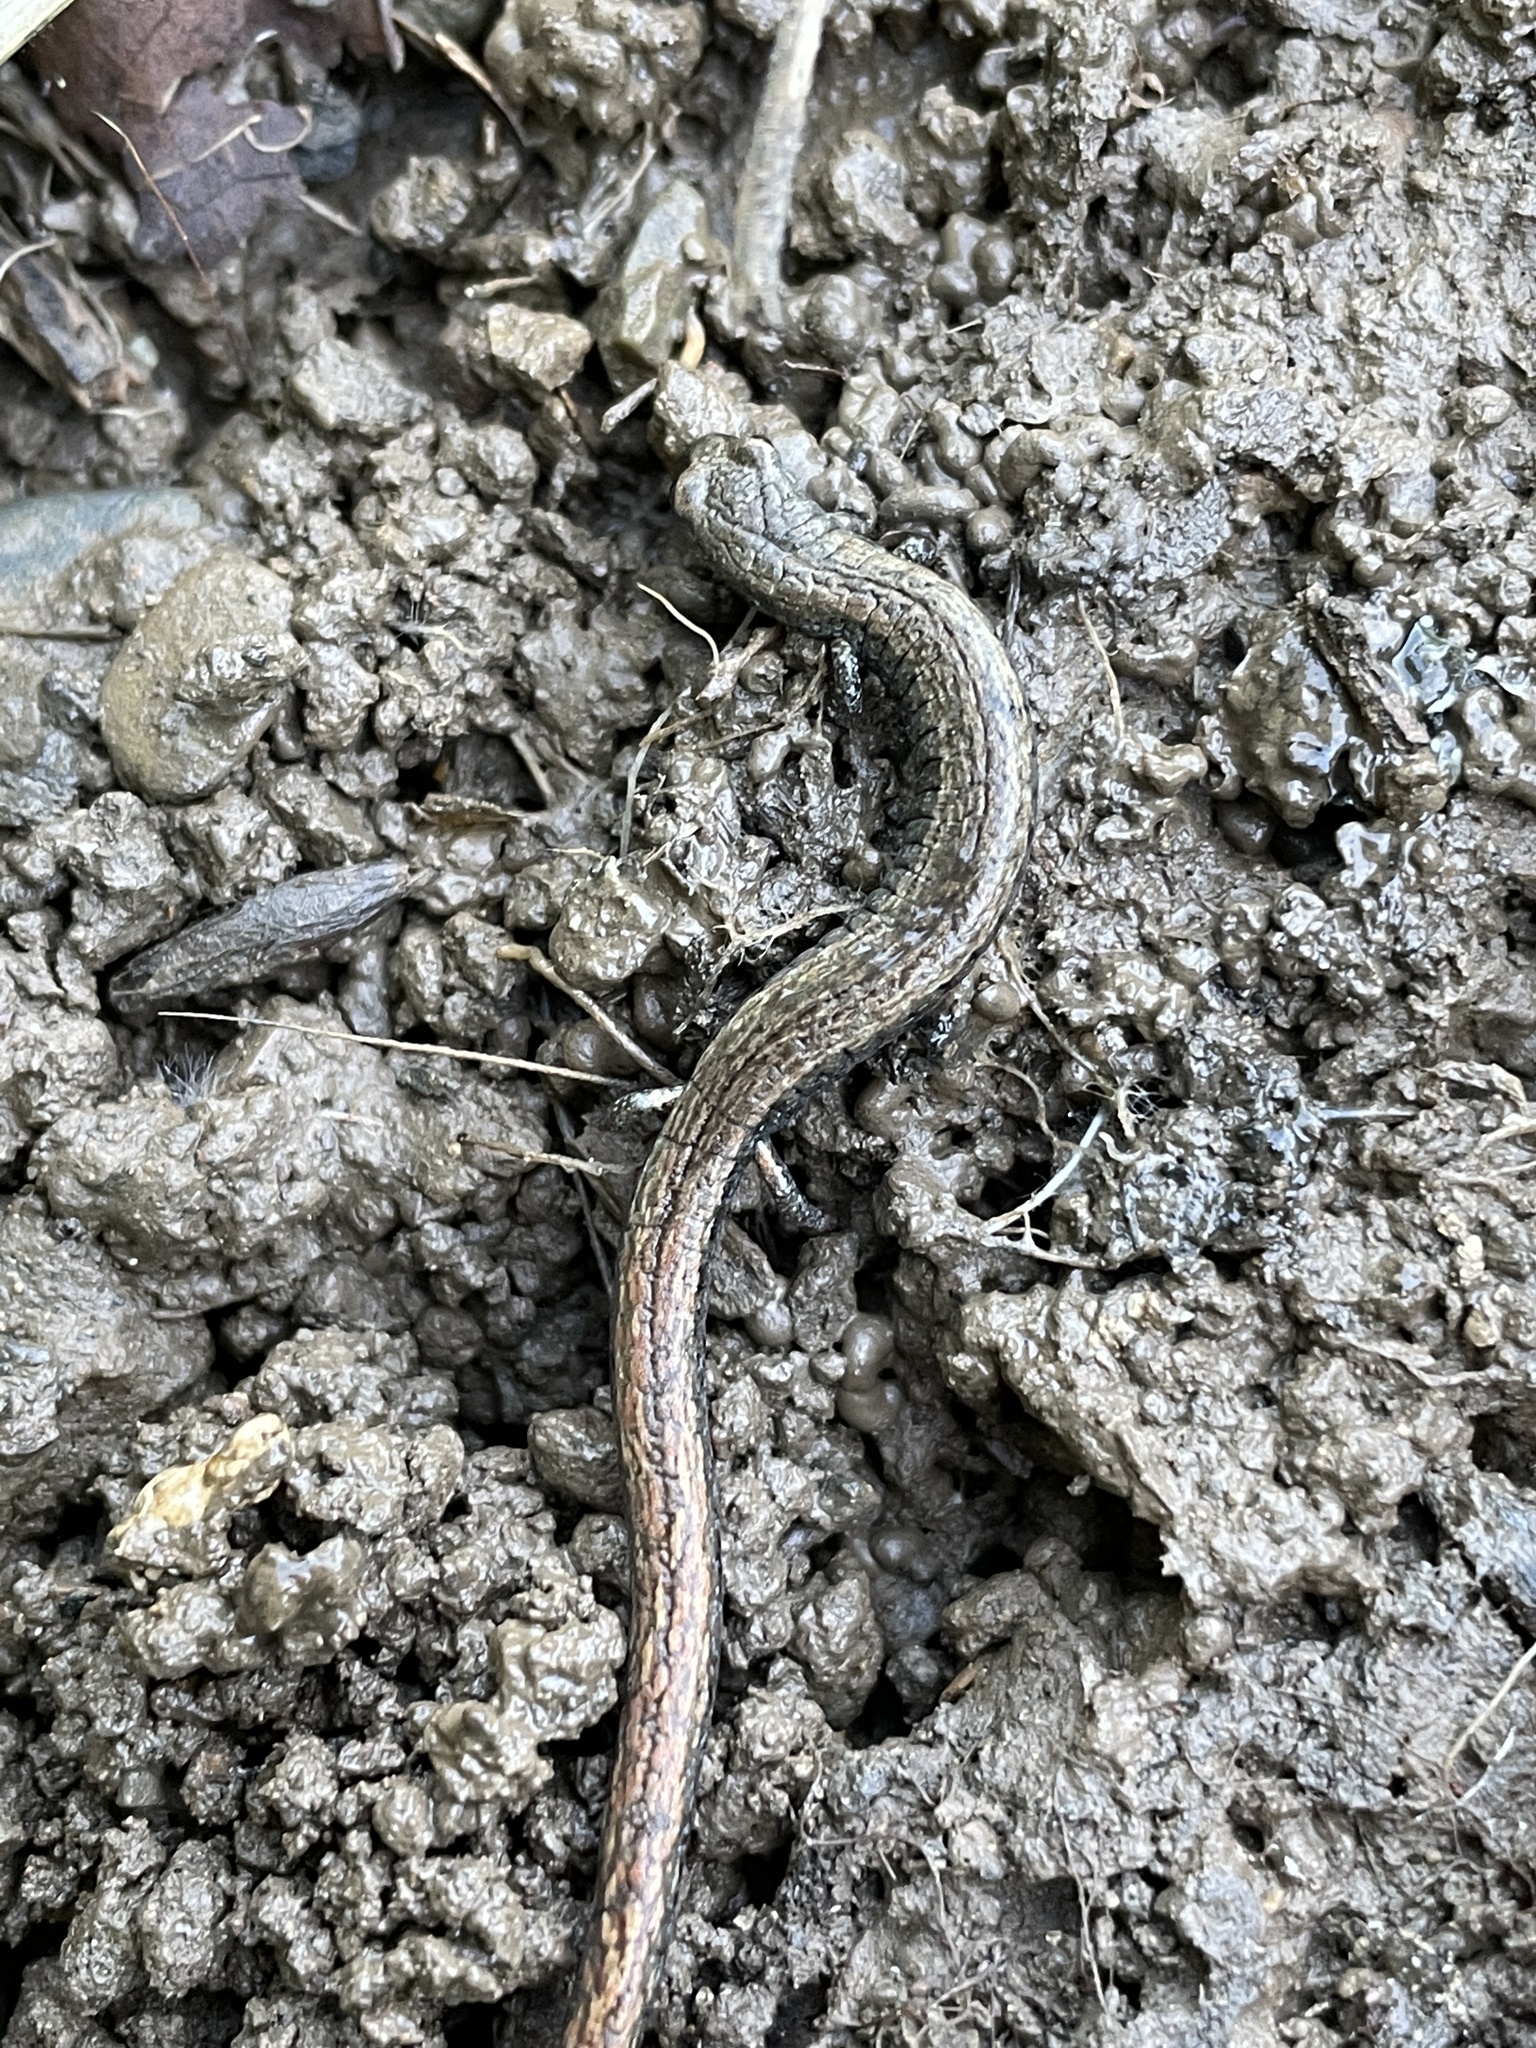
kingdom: Animalia
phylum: Chordata
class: Amphibia
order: Caudata
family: Plethodontidae
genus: Batrachoseps
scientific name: Batrachoseps attenuatus
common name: California slender salamander
